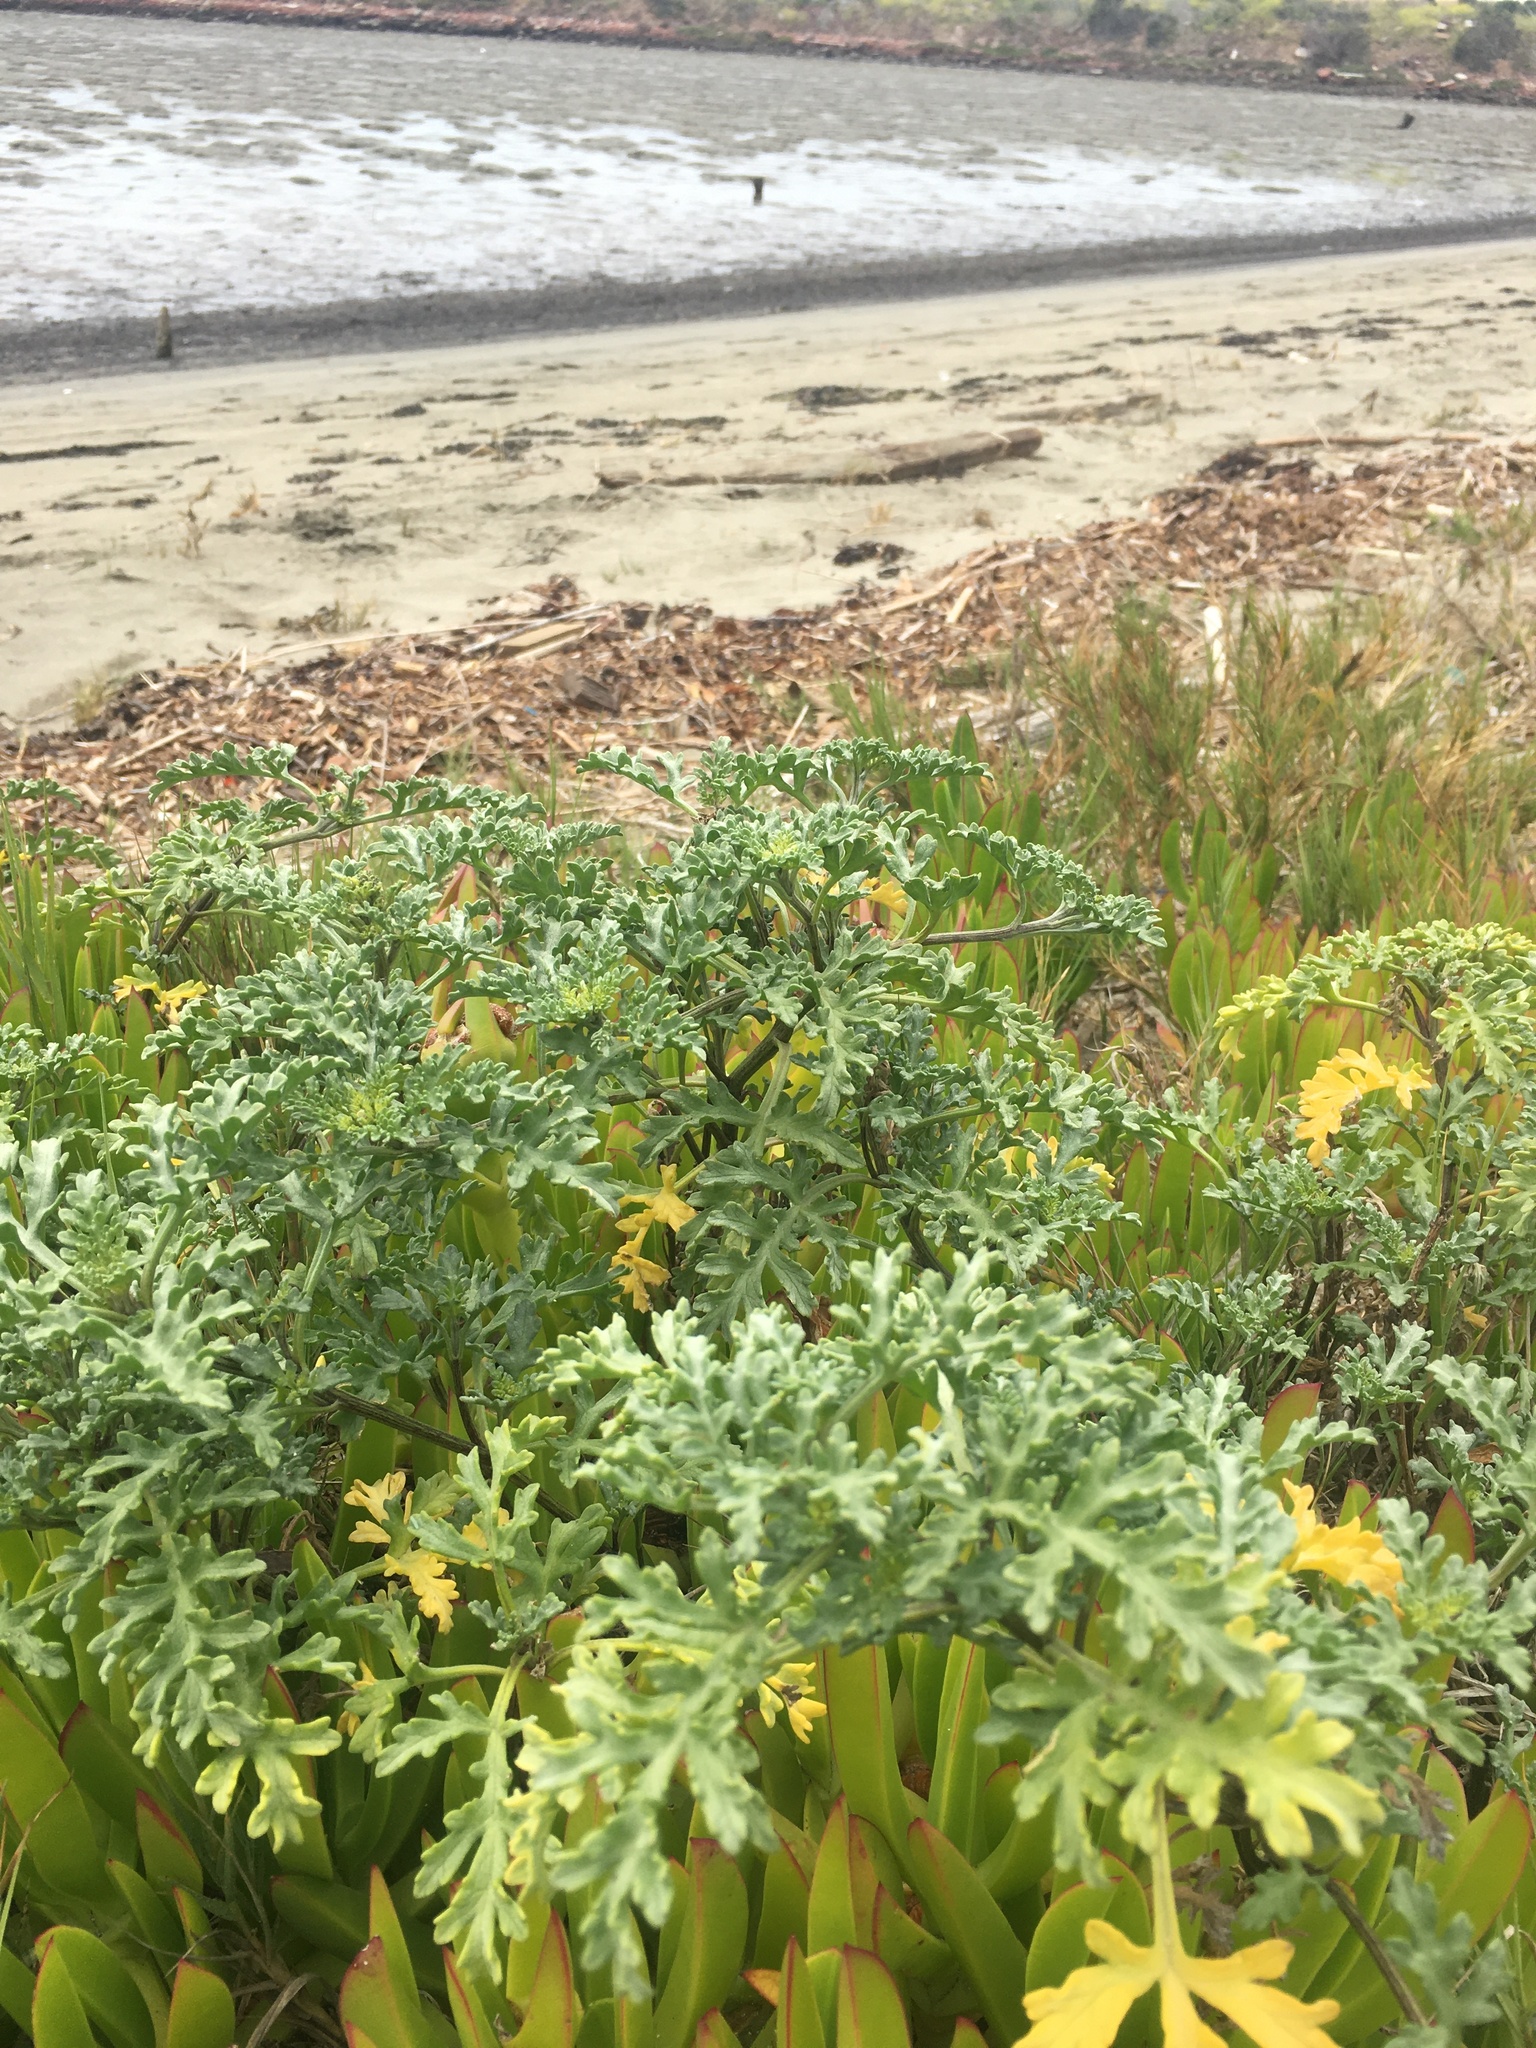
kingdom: Plantae
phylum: Tracheophyta
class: Magnoliopsida
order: Asterales
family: Asteraceae
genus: Ambrosia
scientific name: Ambrosia chamissonis
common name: Beachbur
